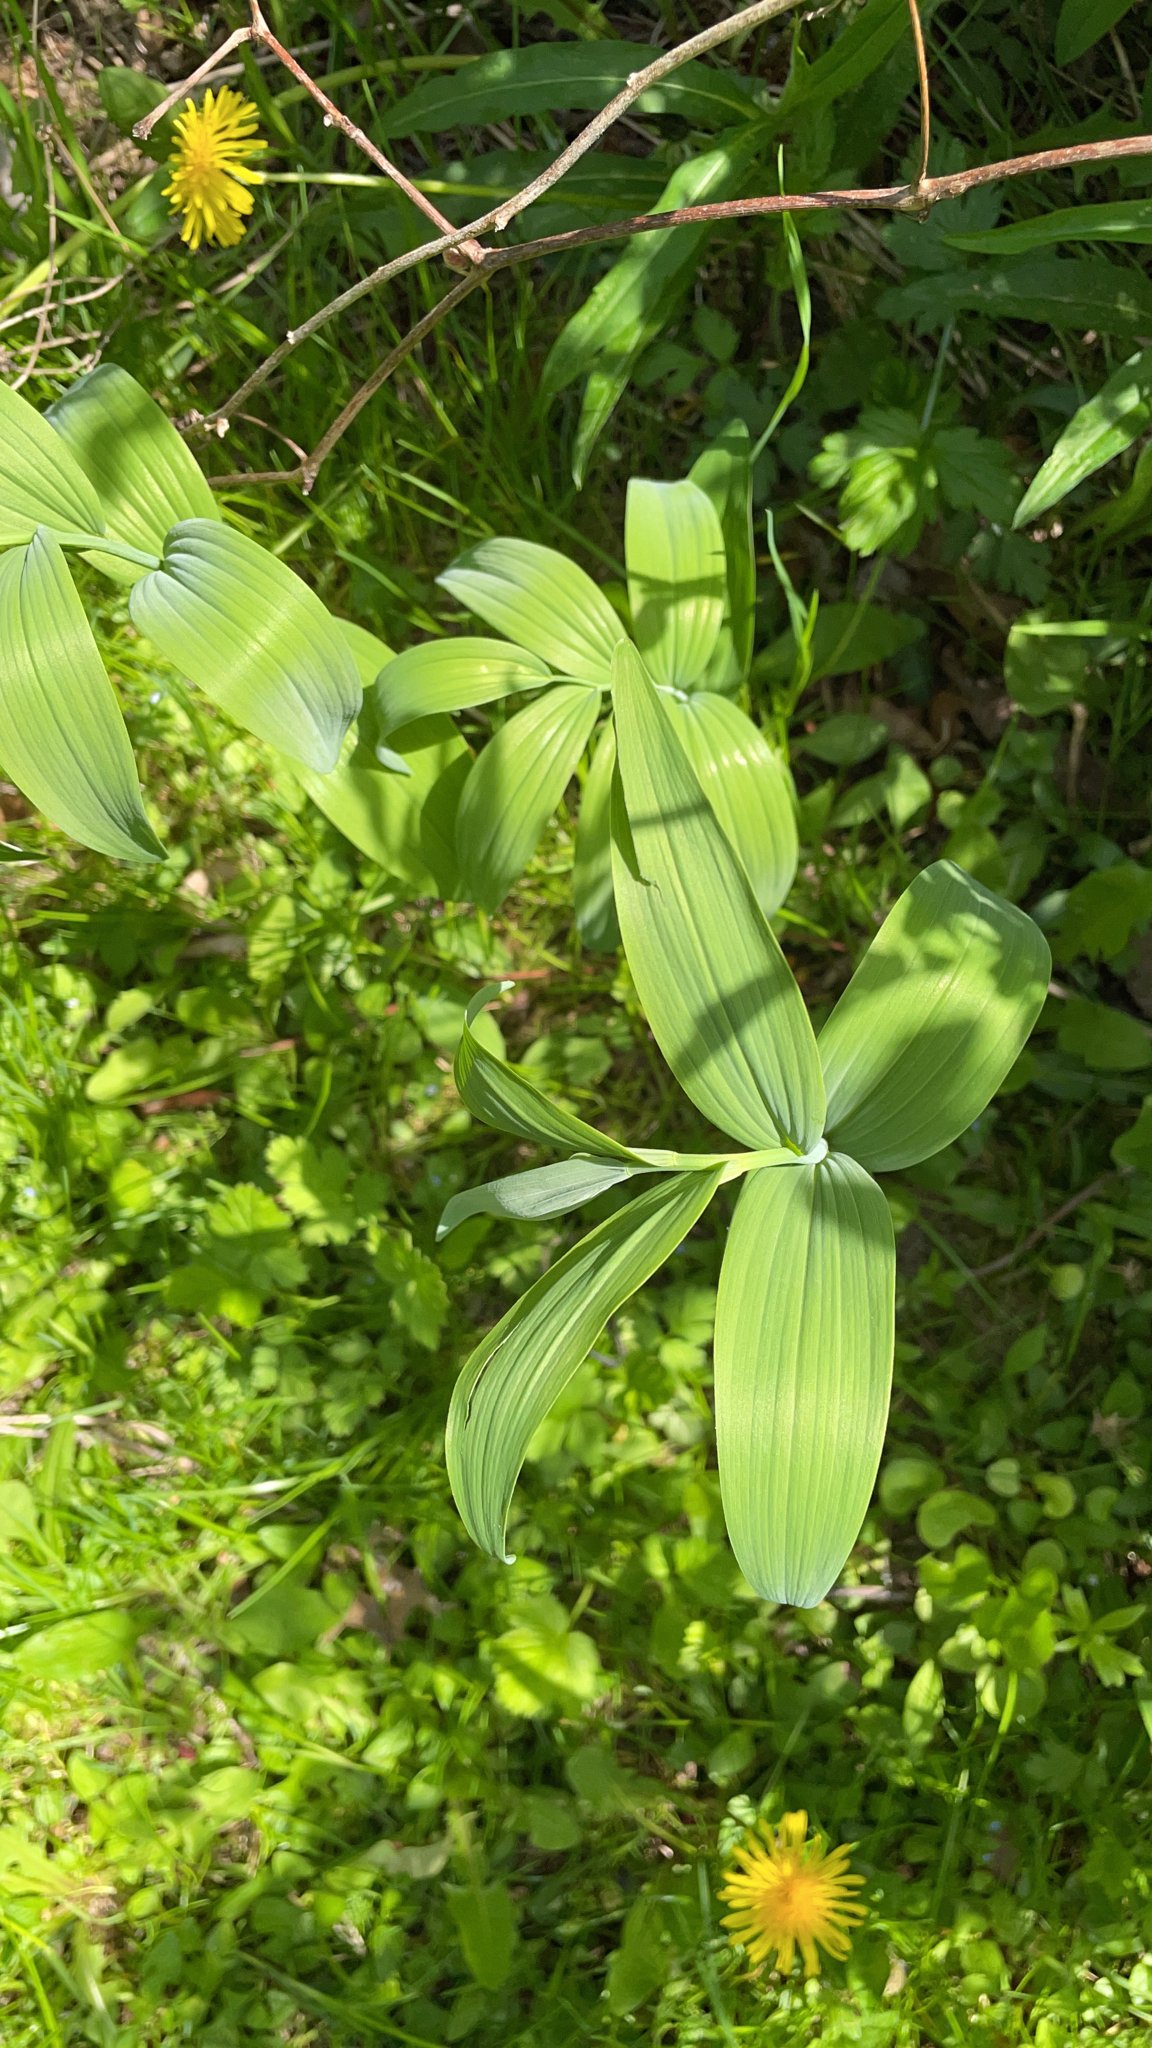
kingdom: Plantae
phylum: Tracheophyta
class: Liliopsida
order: Asparagales
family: Asparagaceae
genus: Polygonatum
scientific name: Polygonatum biflorum
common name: American solomon's-seal
